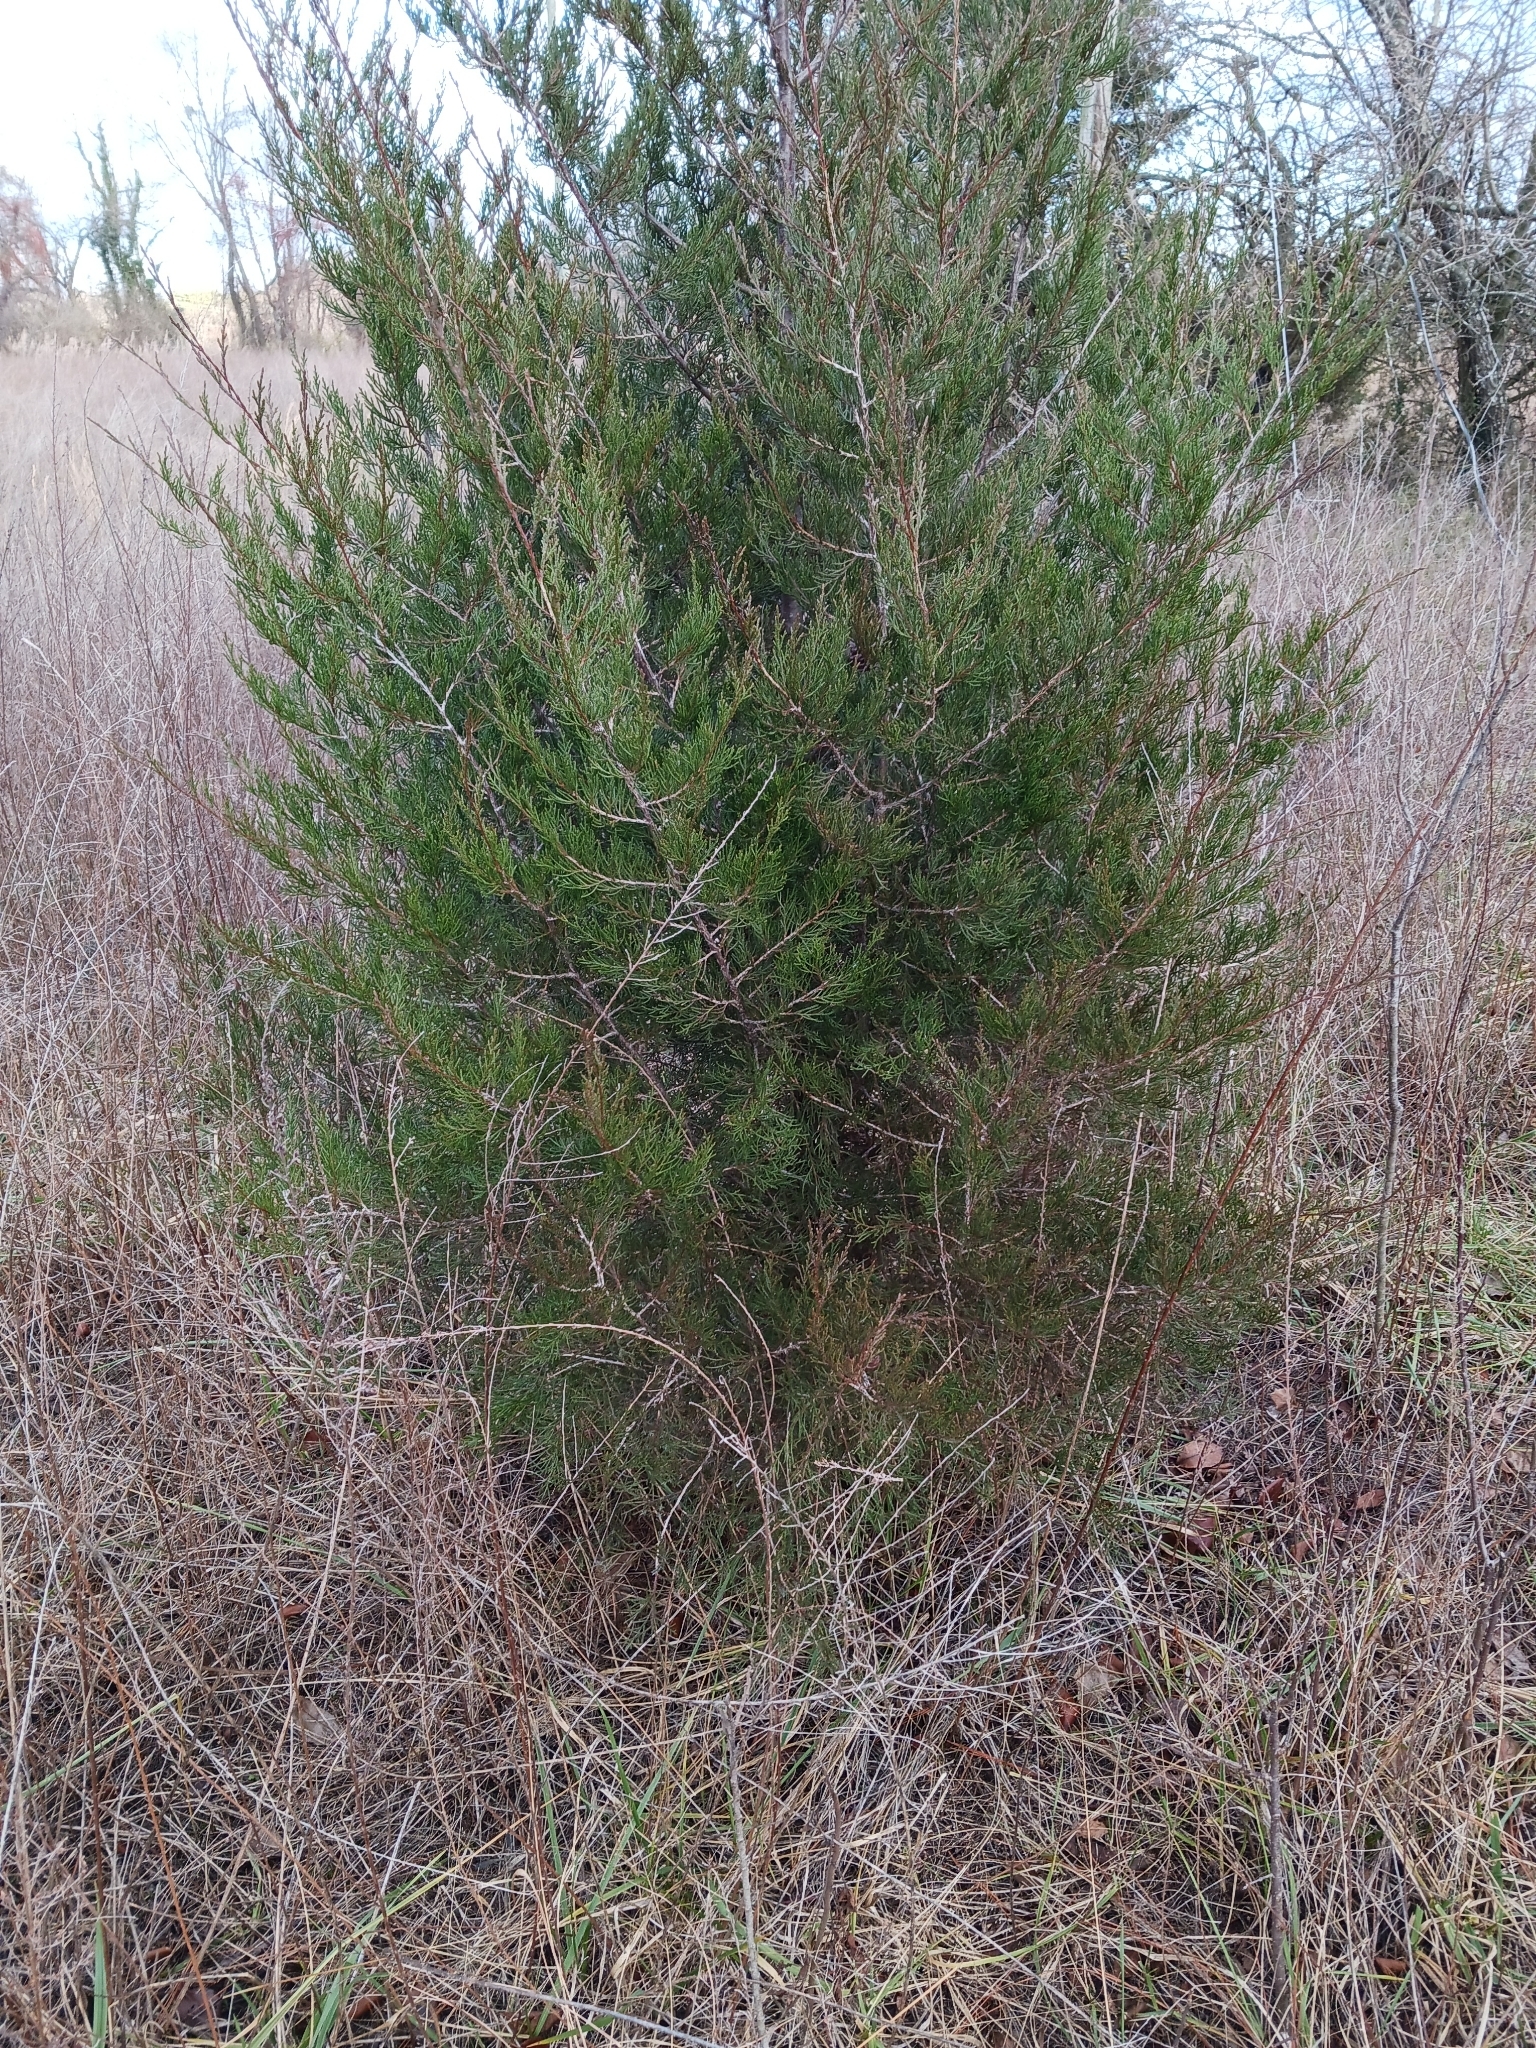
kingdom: Plantae
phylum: Tracheophyta
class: Pinopsida
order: Pinales
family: Cupressaceae
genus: Juniperus
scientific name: Juniperus virginiana
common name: Red juniper
